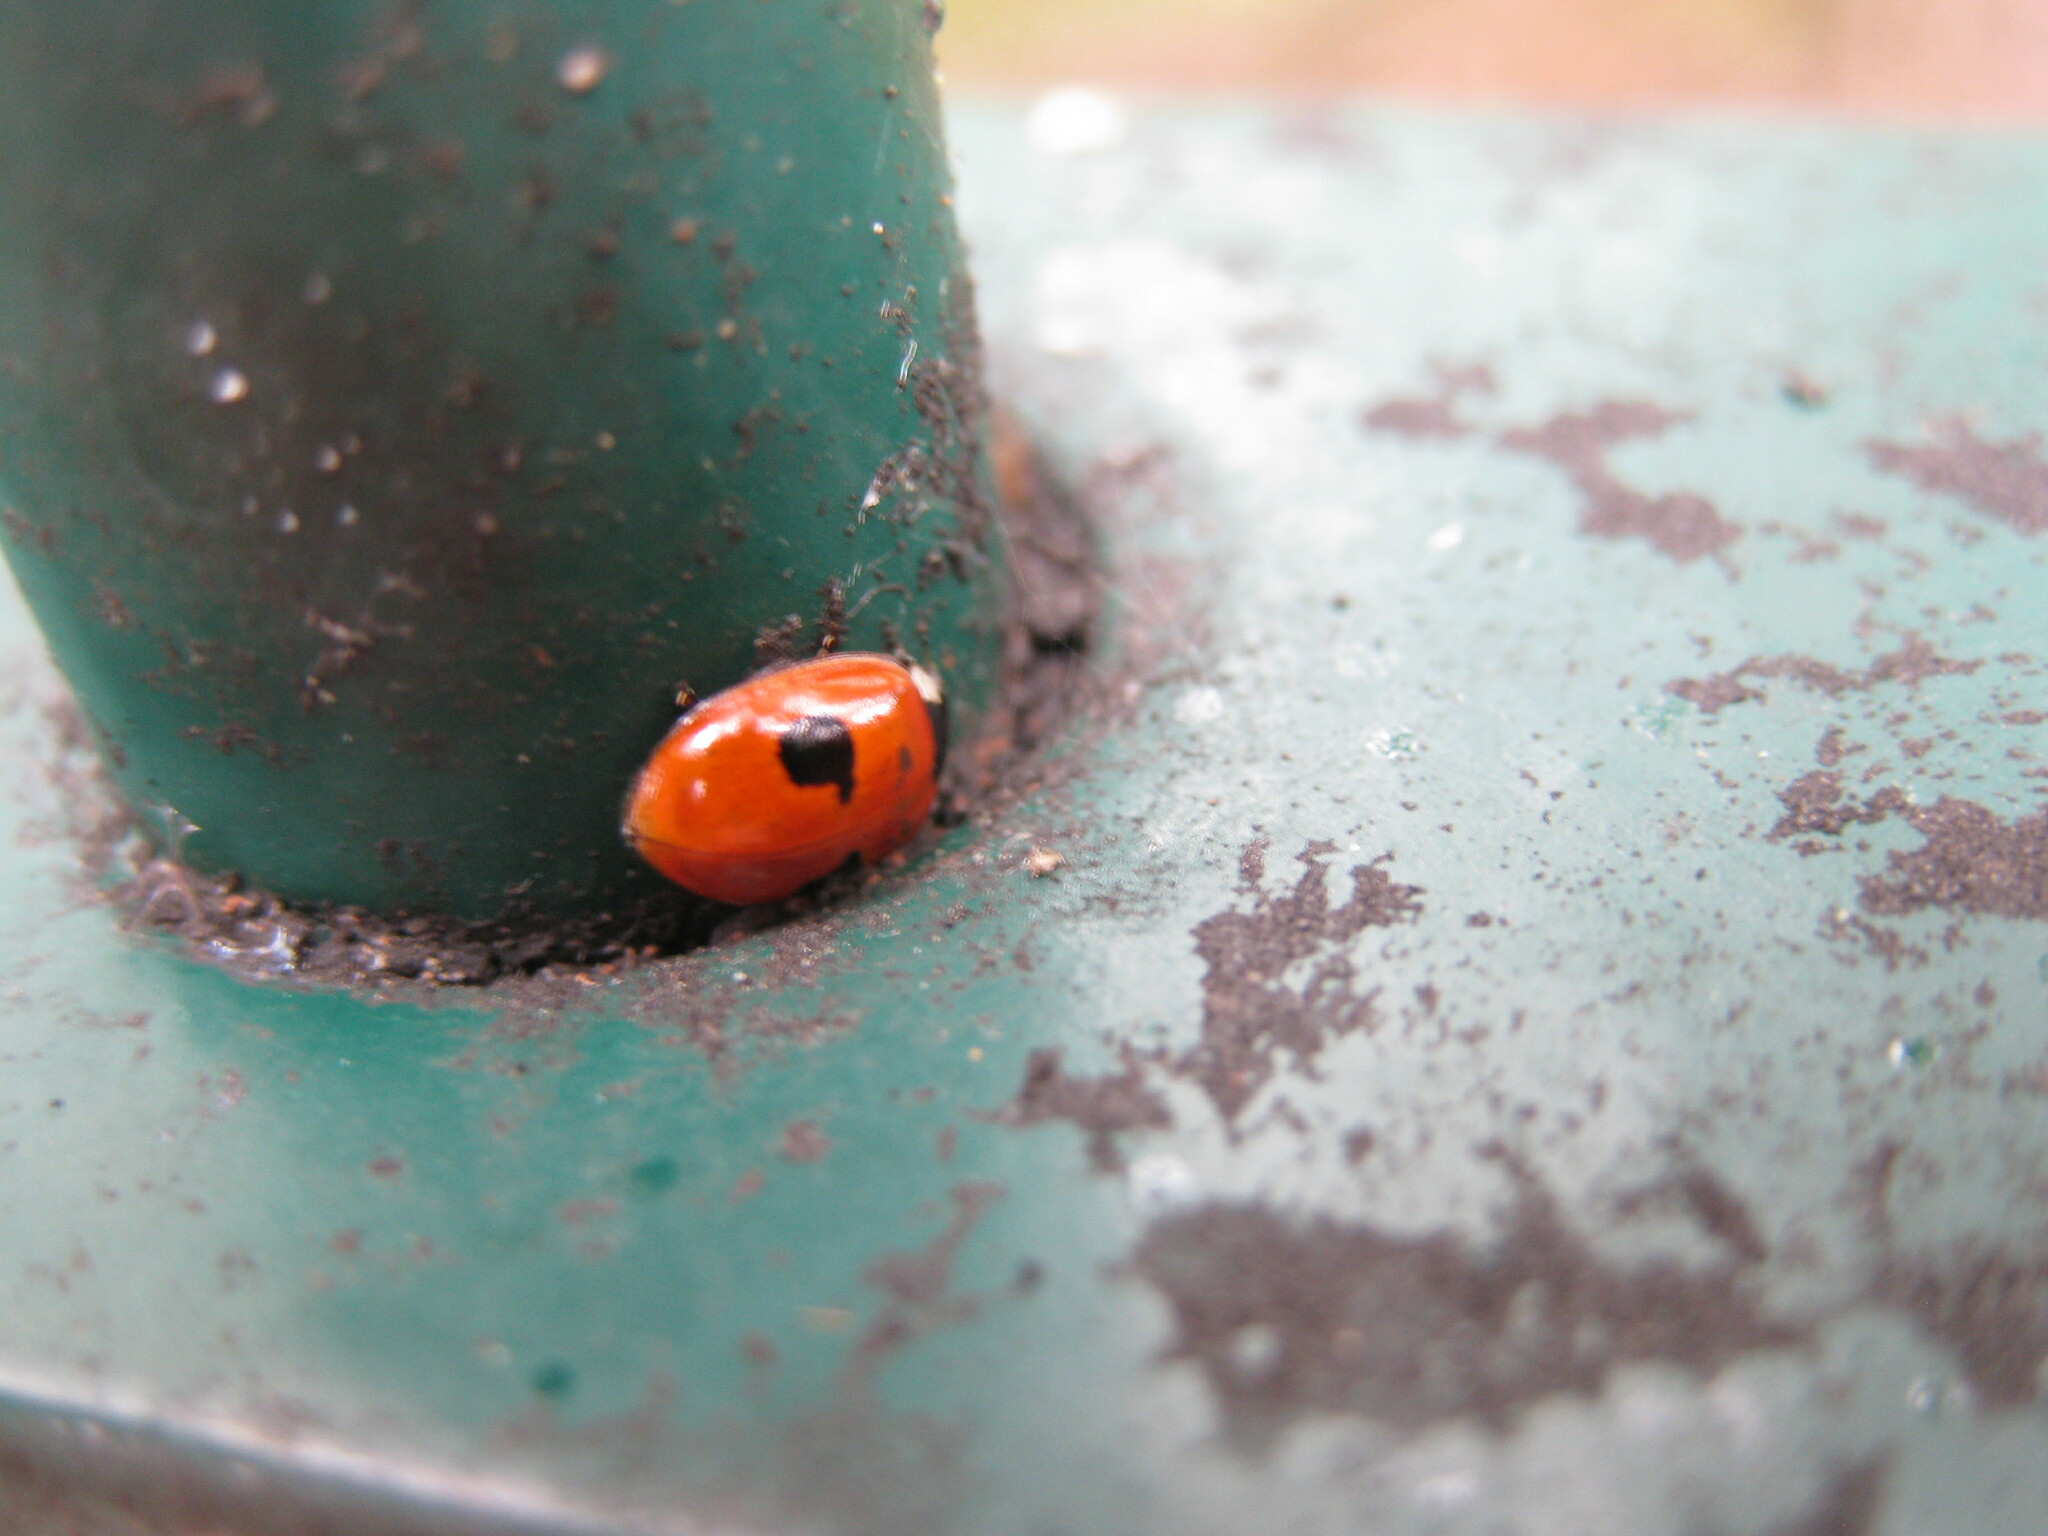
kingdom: Animalia
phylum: Arthropoda
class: Insecta
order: Coleoptera
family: Coccinellidae
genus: Adalia
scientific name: Adalia bipunctata
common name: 2-spot ladybird
